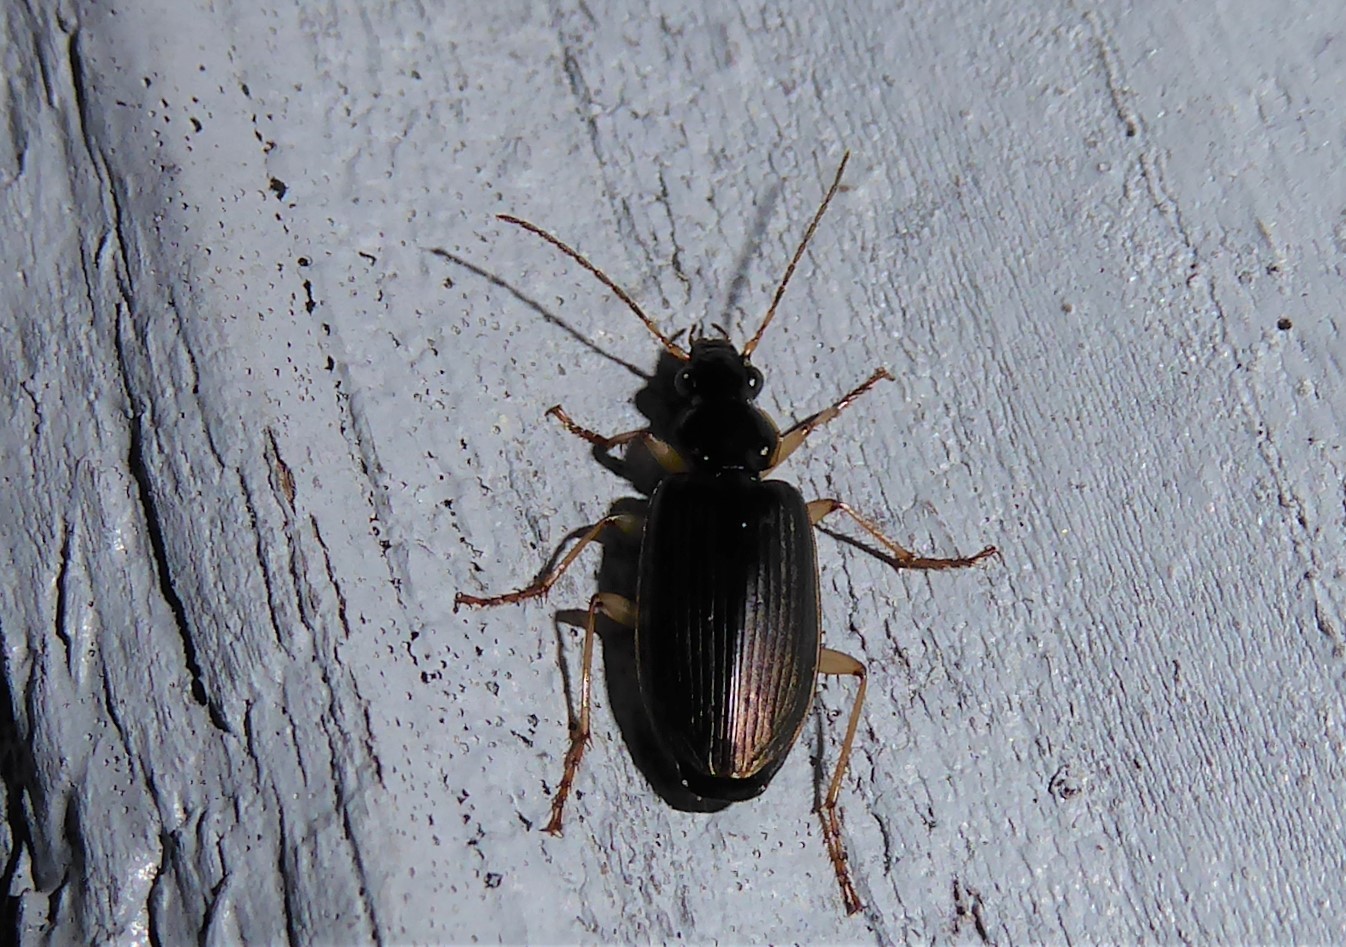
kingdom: Animalia
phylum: Arthropoda
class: Insecta
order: Coleoptera
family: Carabidae
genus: Notagonum
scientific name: Notagonum submetallicum
